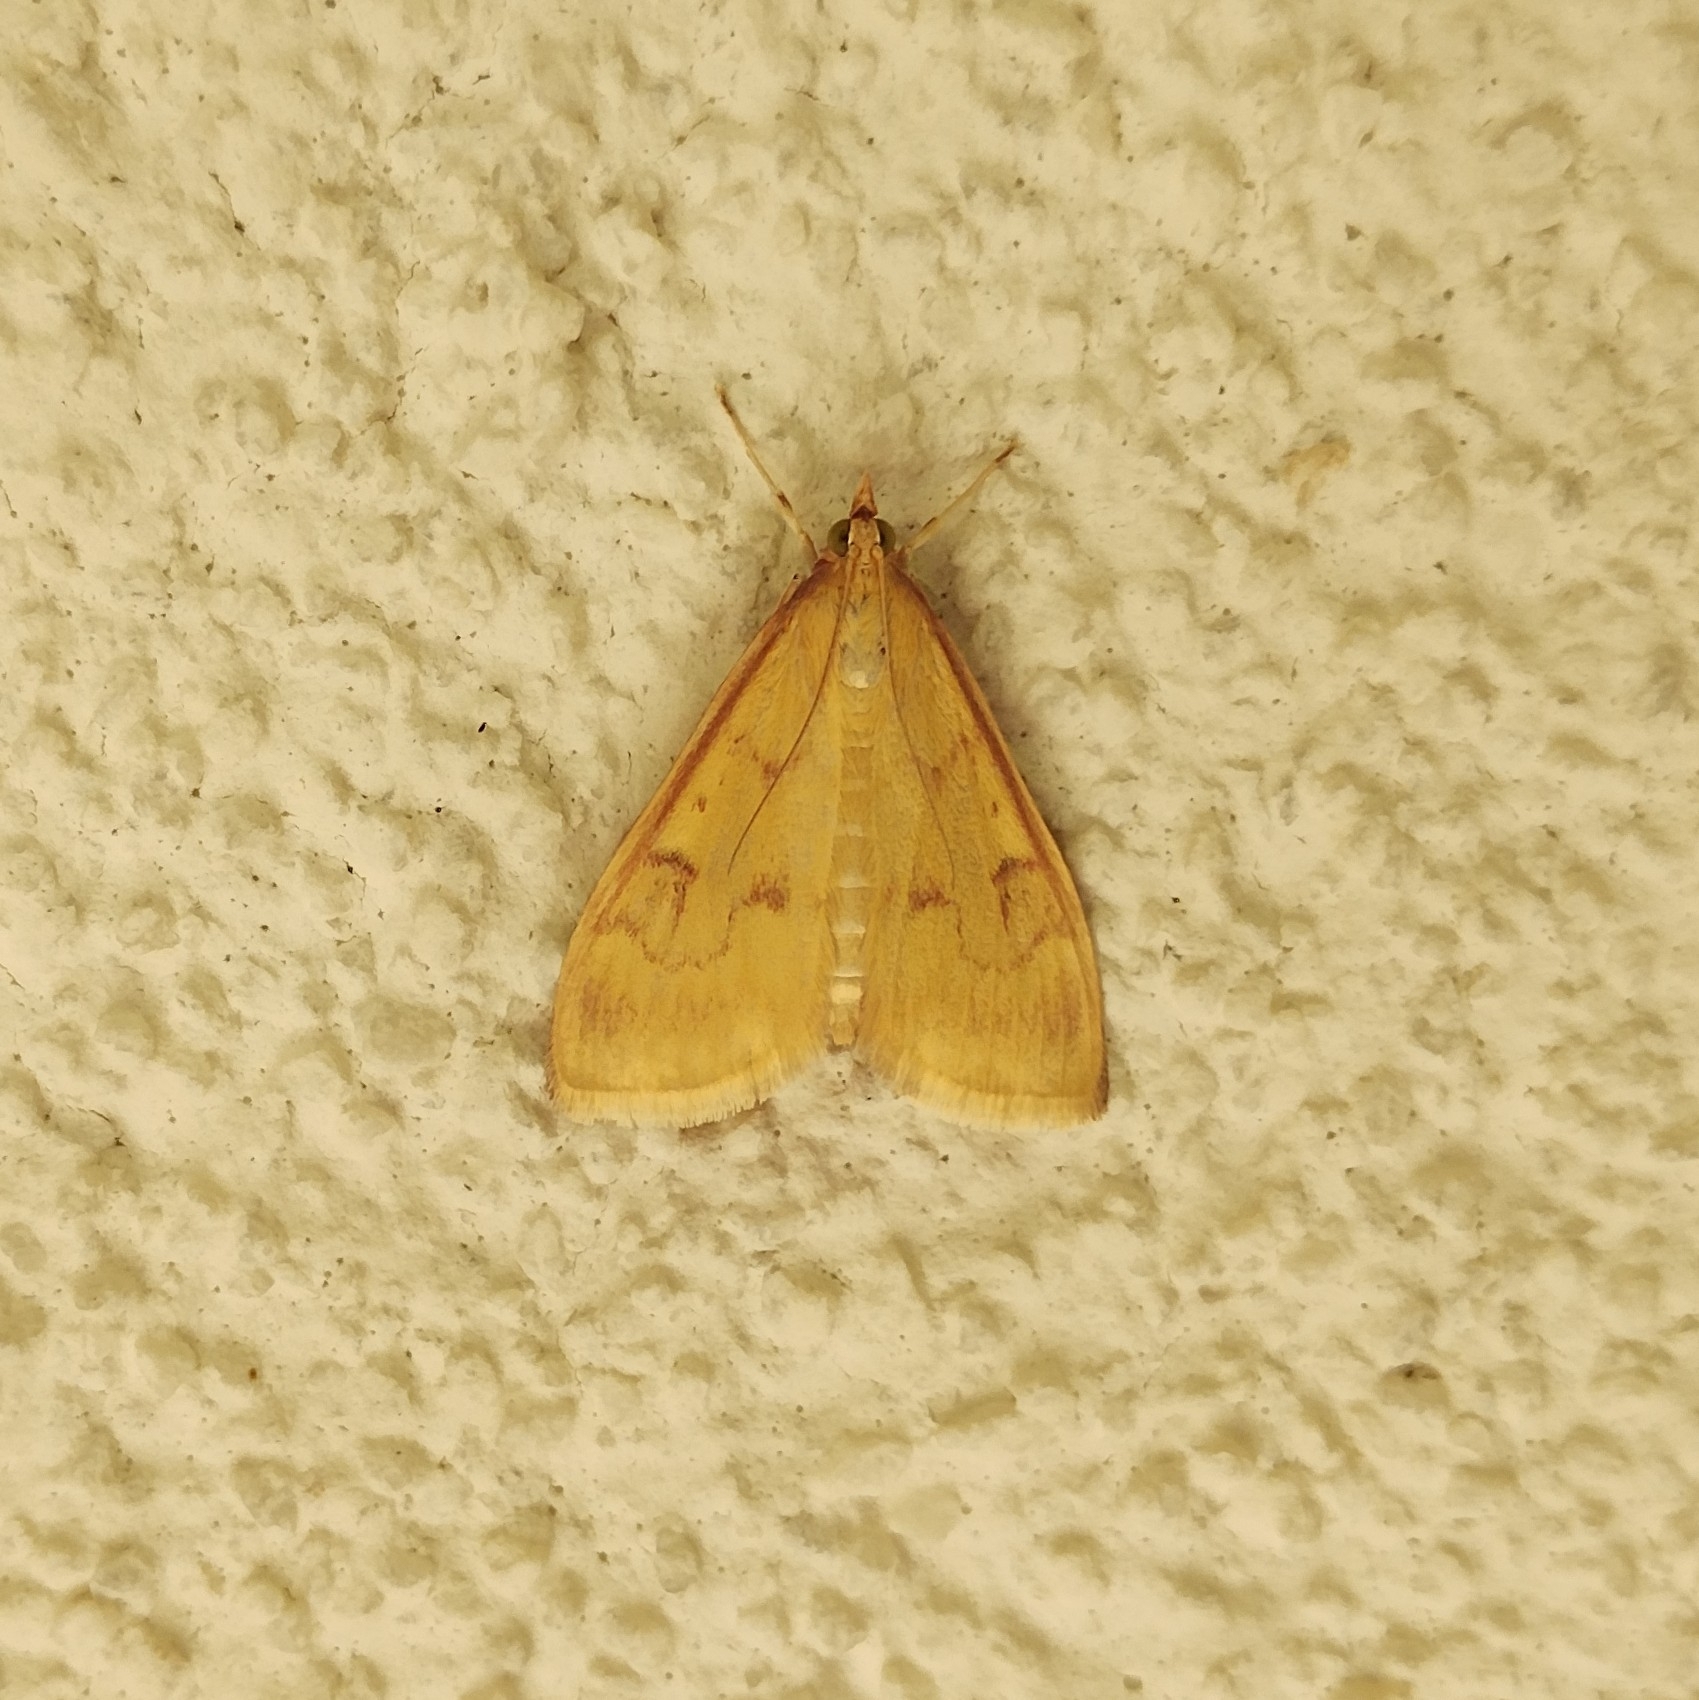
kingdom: Animalia
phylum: Arthropoda
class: Insecta
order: Lepidoptera
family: Crambidae
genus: Ostrinia
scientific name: Ostrinia nubilalis
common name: European corn borer
